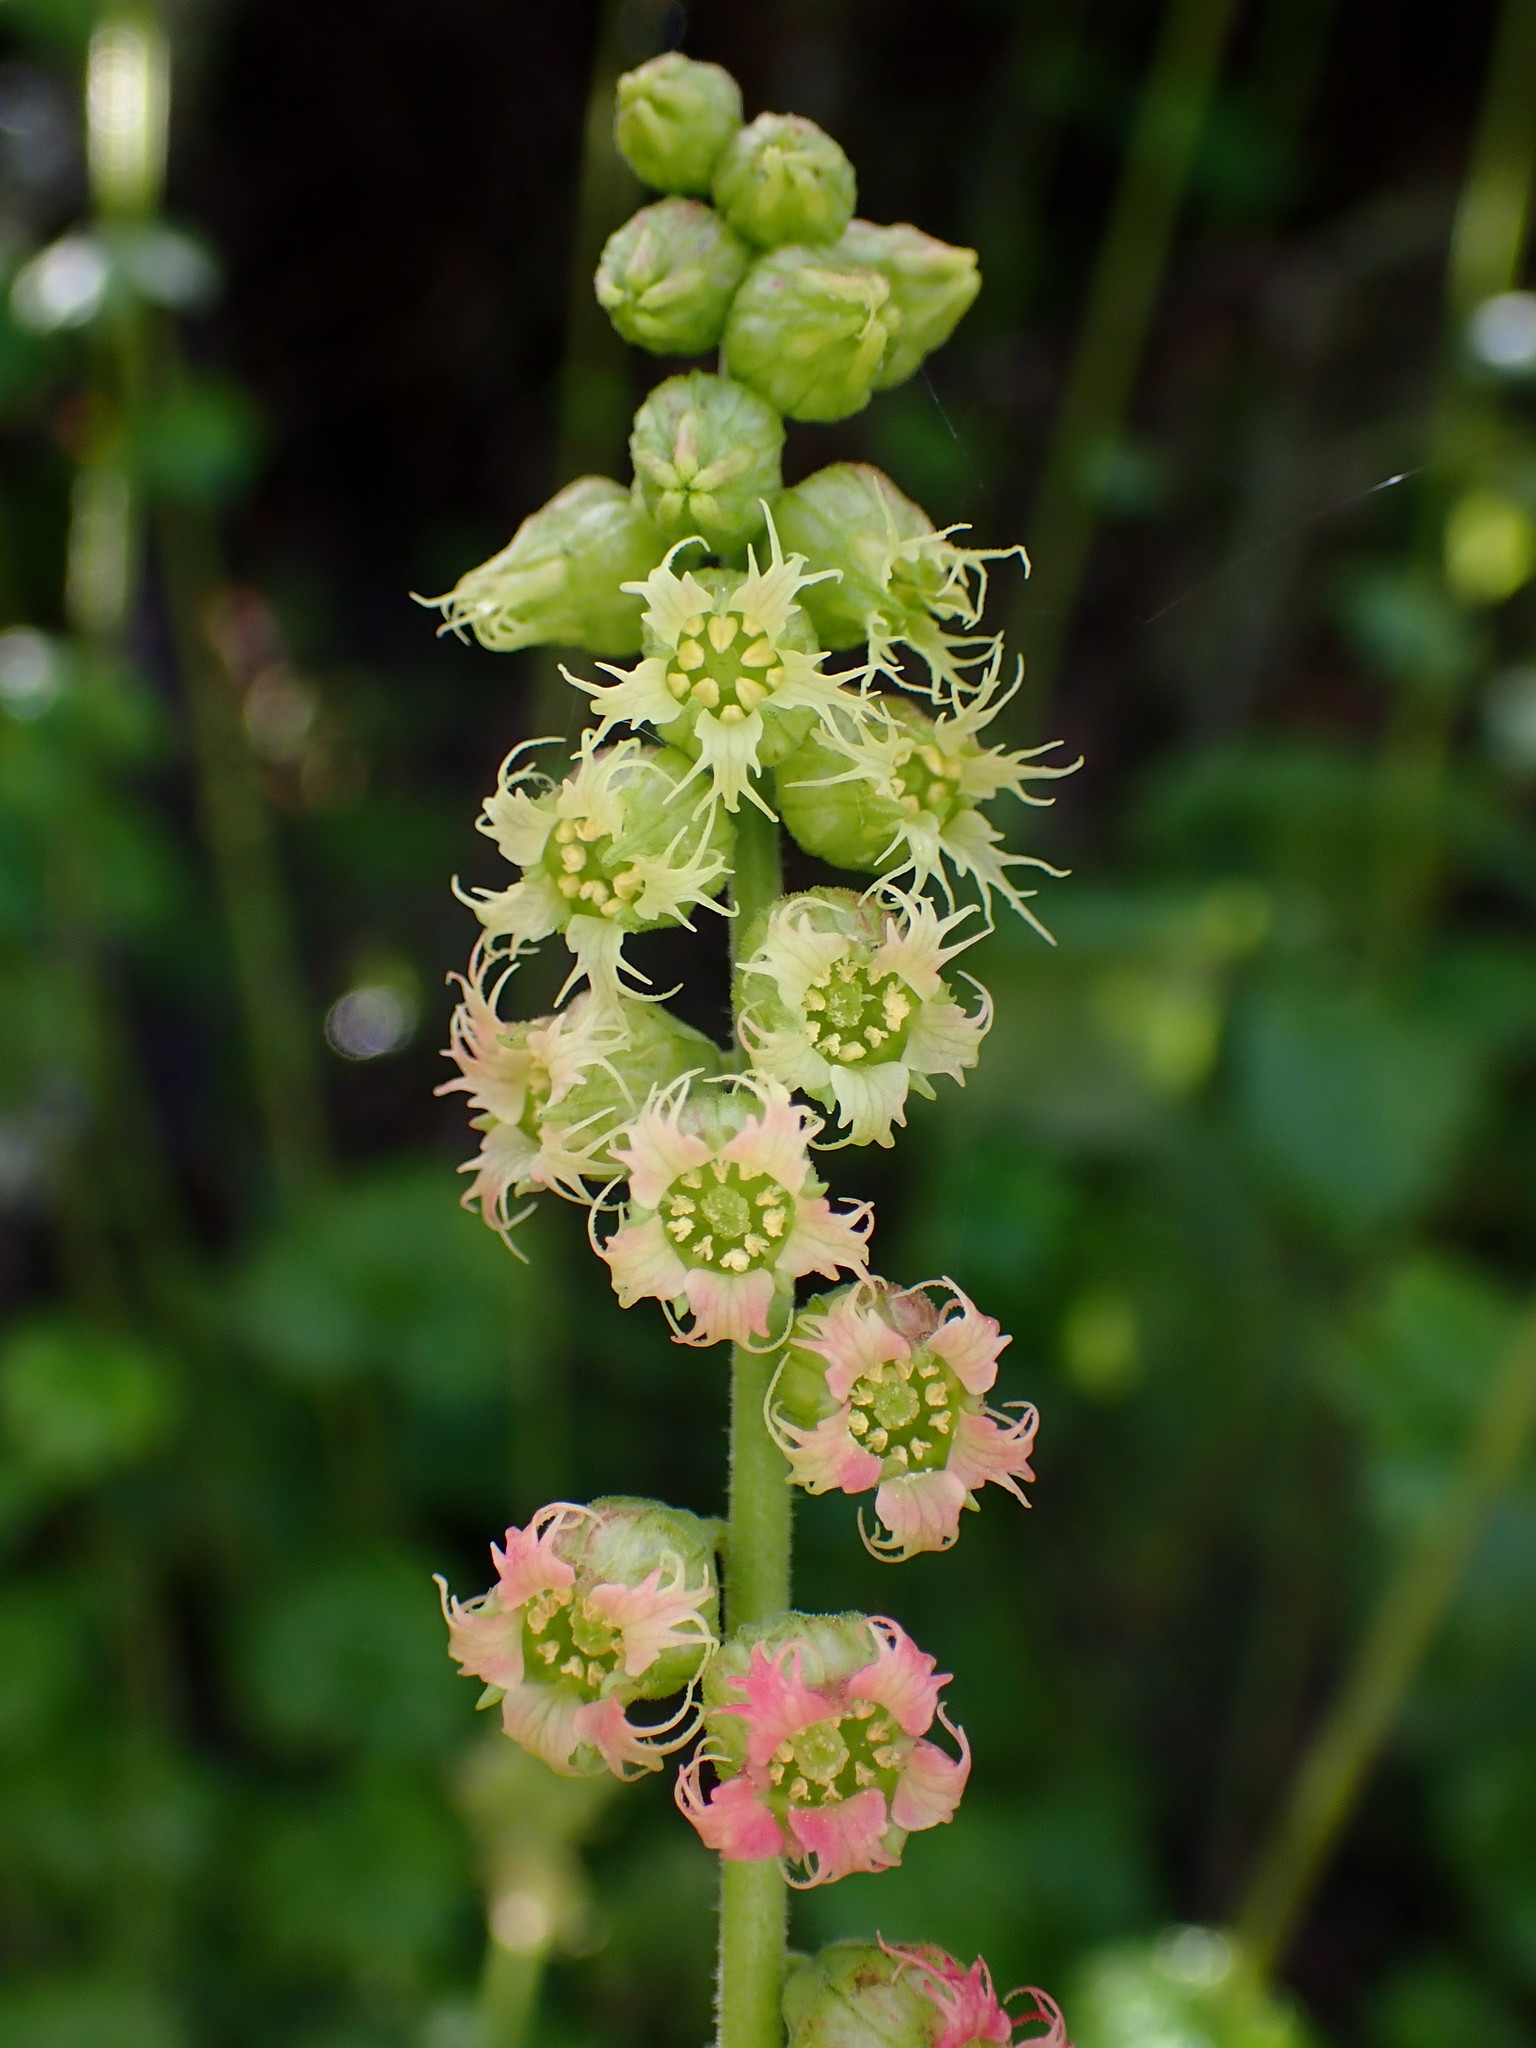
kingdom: Plantae
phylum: Tracheophyta
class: Magnoliopsida
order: Saxifragales
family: Saxifragaceae
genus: Tellima
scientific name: Tellima grandiflora
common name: Fringecups
